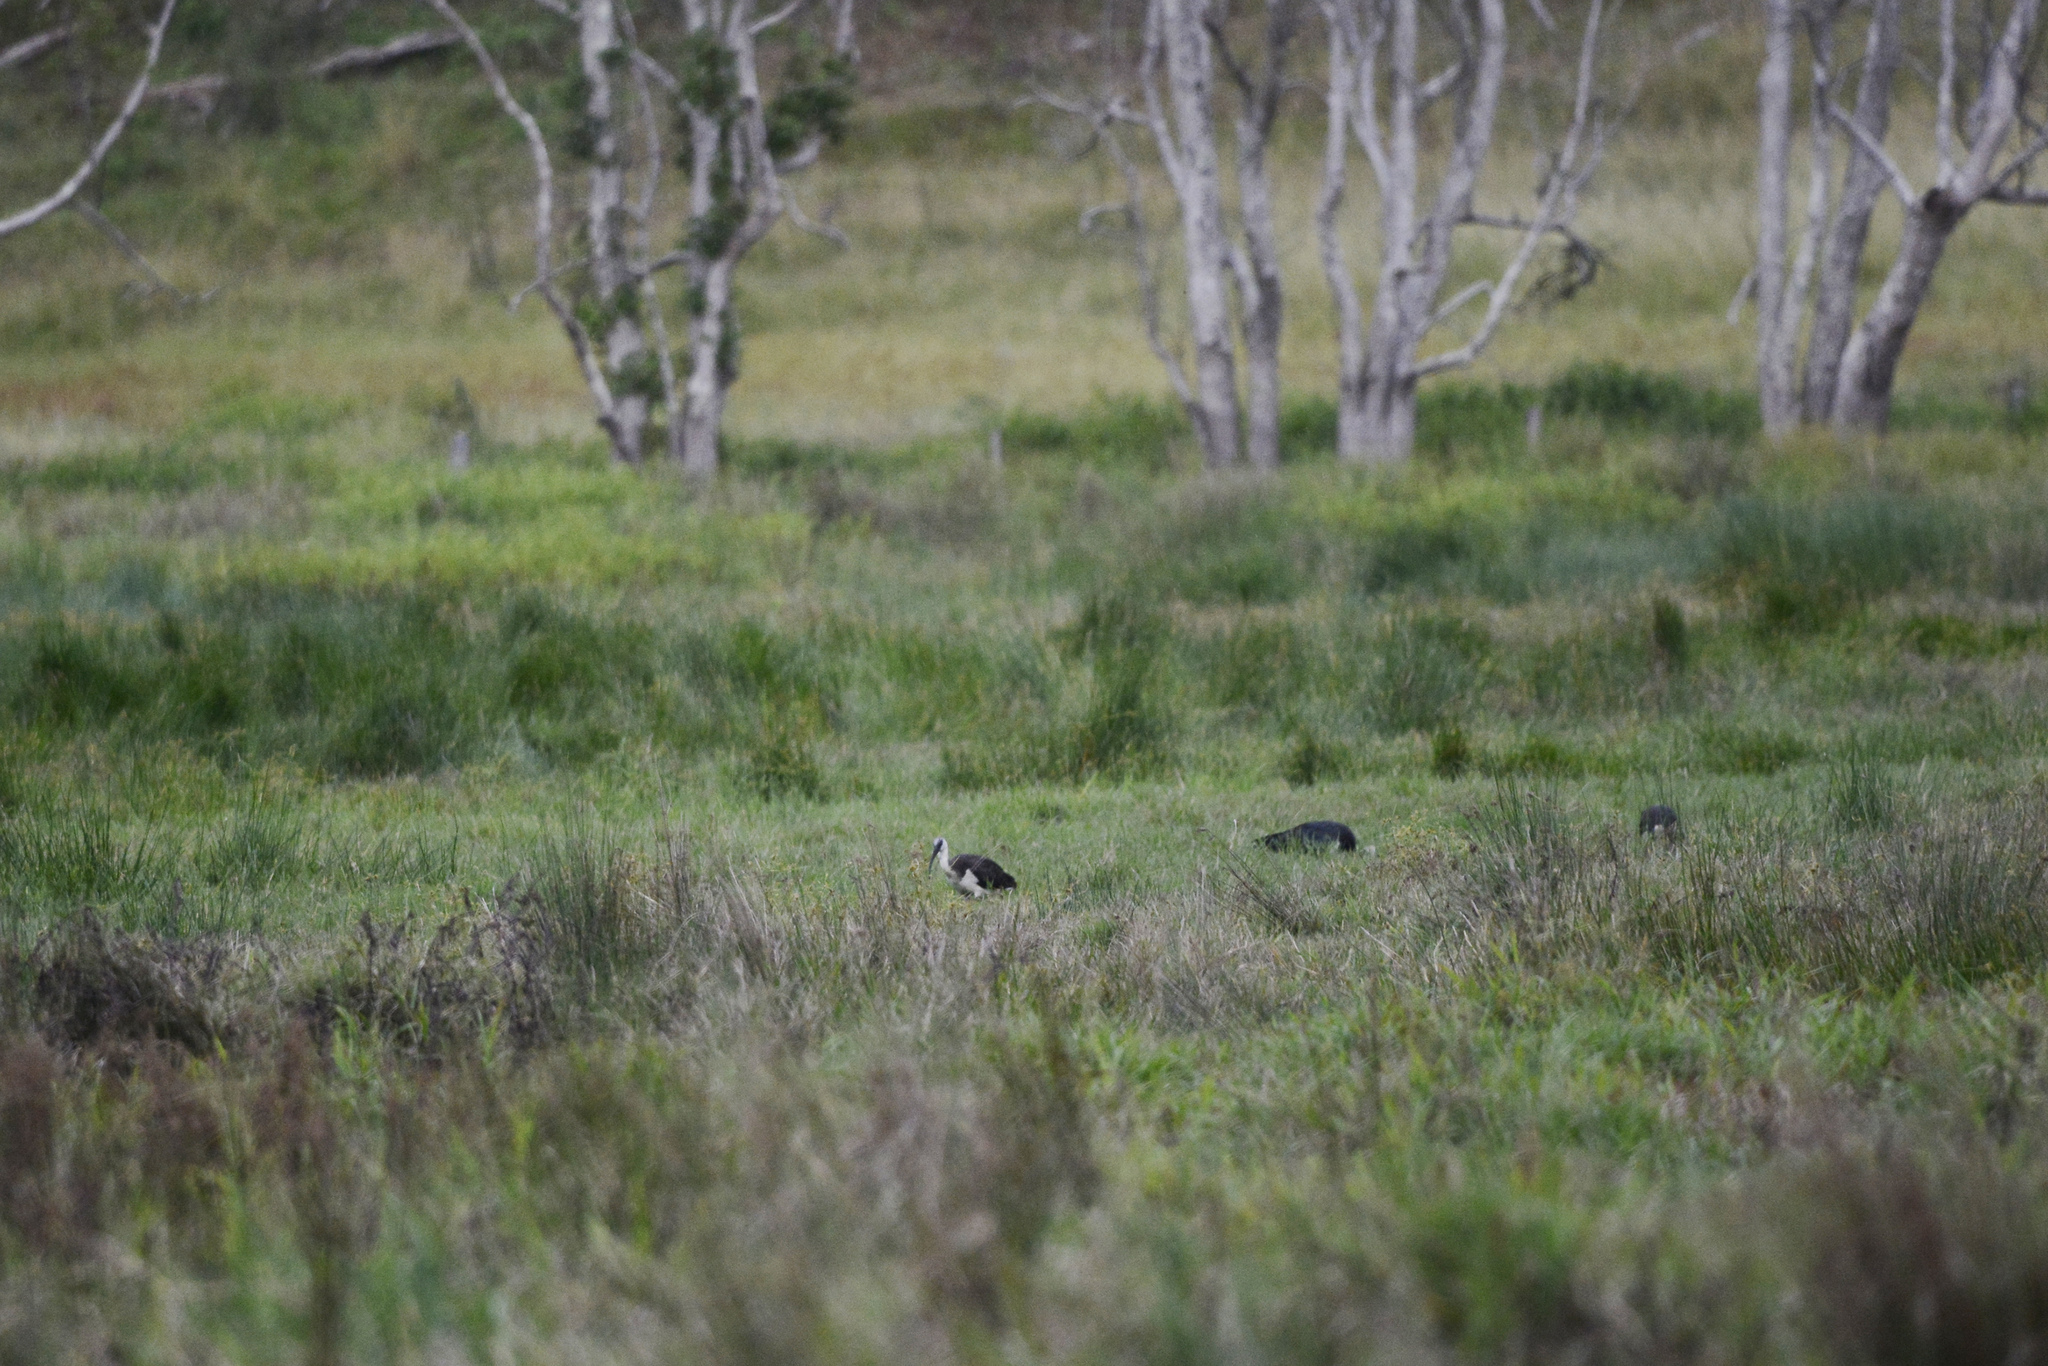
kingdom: Animalia
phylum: Chordata
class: Aves
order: Pelecaniformes
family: Threskiornithidae
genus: Threskiornis
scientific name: Threskiornis spinicollis
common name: Straw-necked ibis
